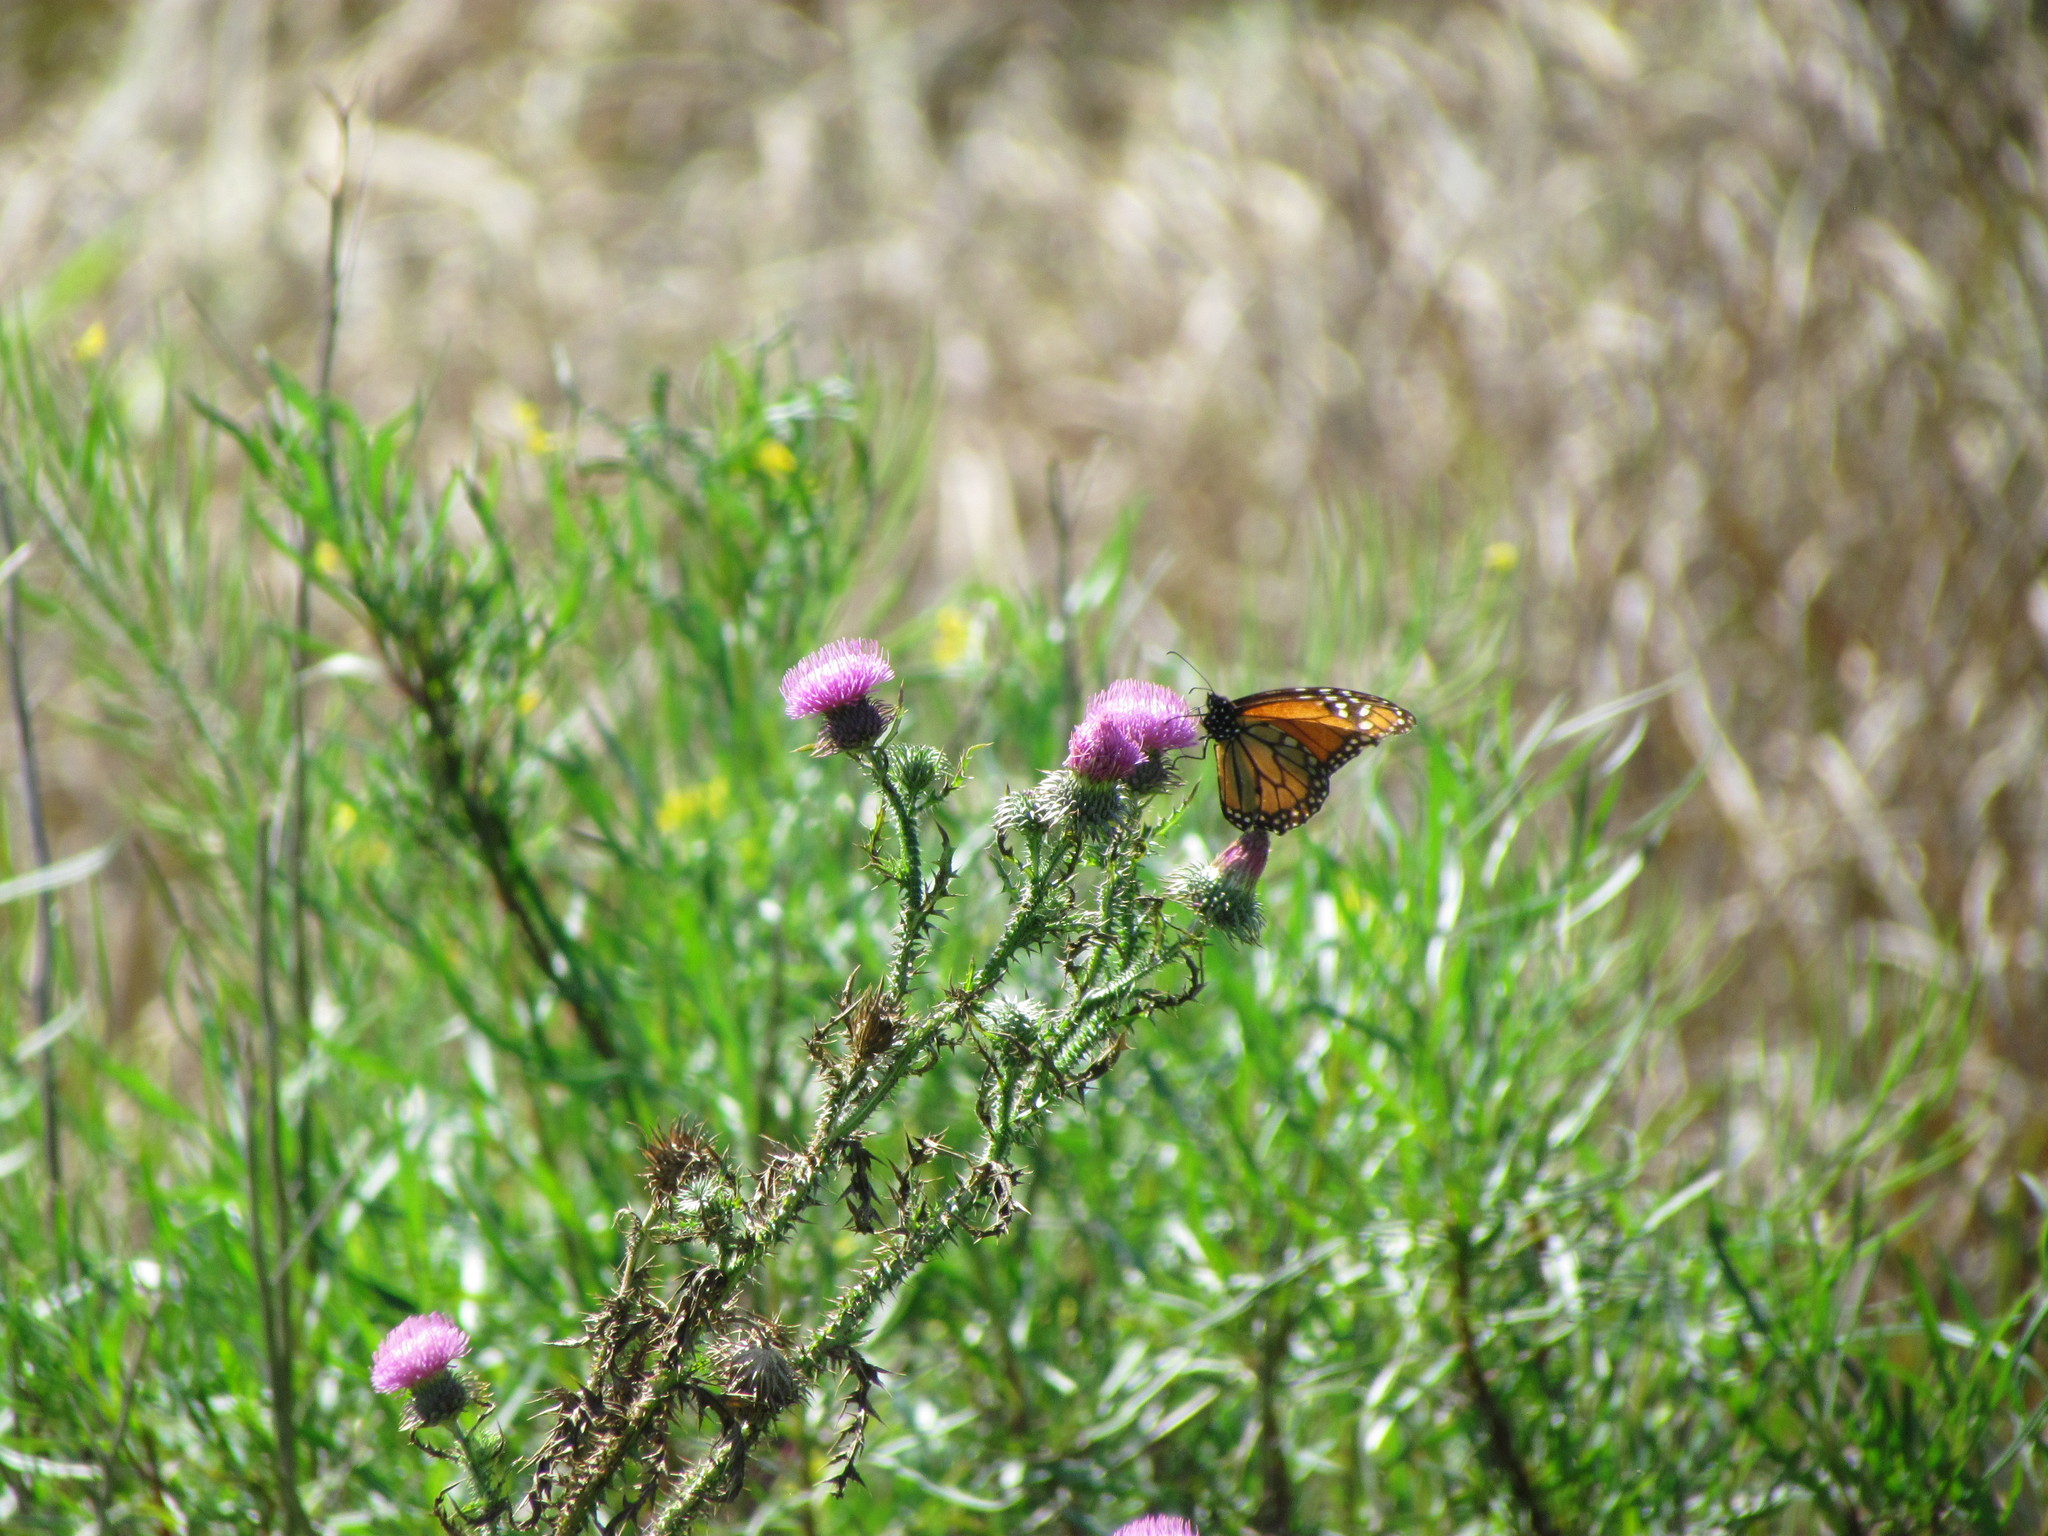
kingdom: Animalia
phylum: Arthropoda
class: Insecta
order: Lepidoptera
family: Nymphalidae
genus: Danaus
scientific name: Danaus erippus
